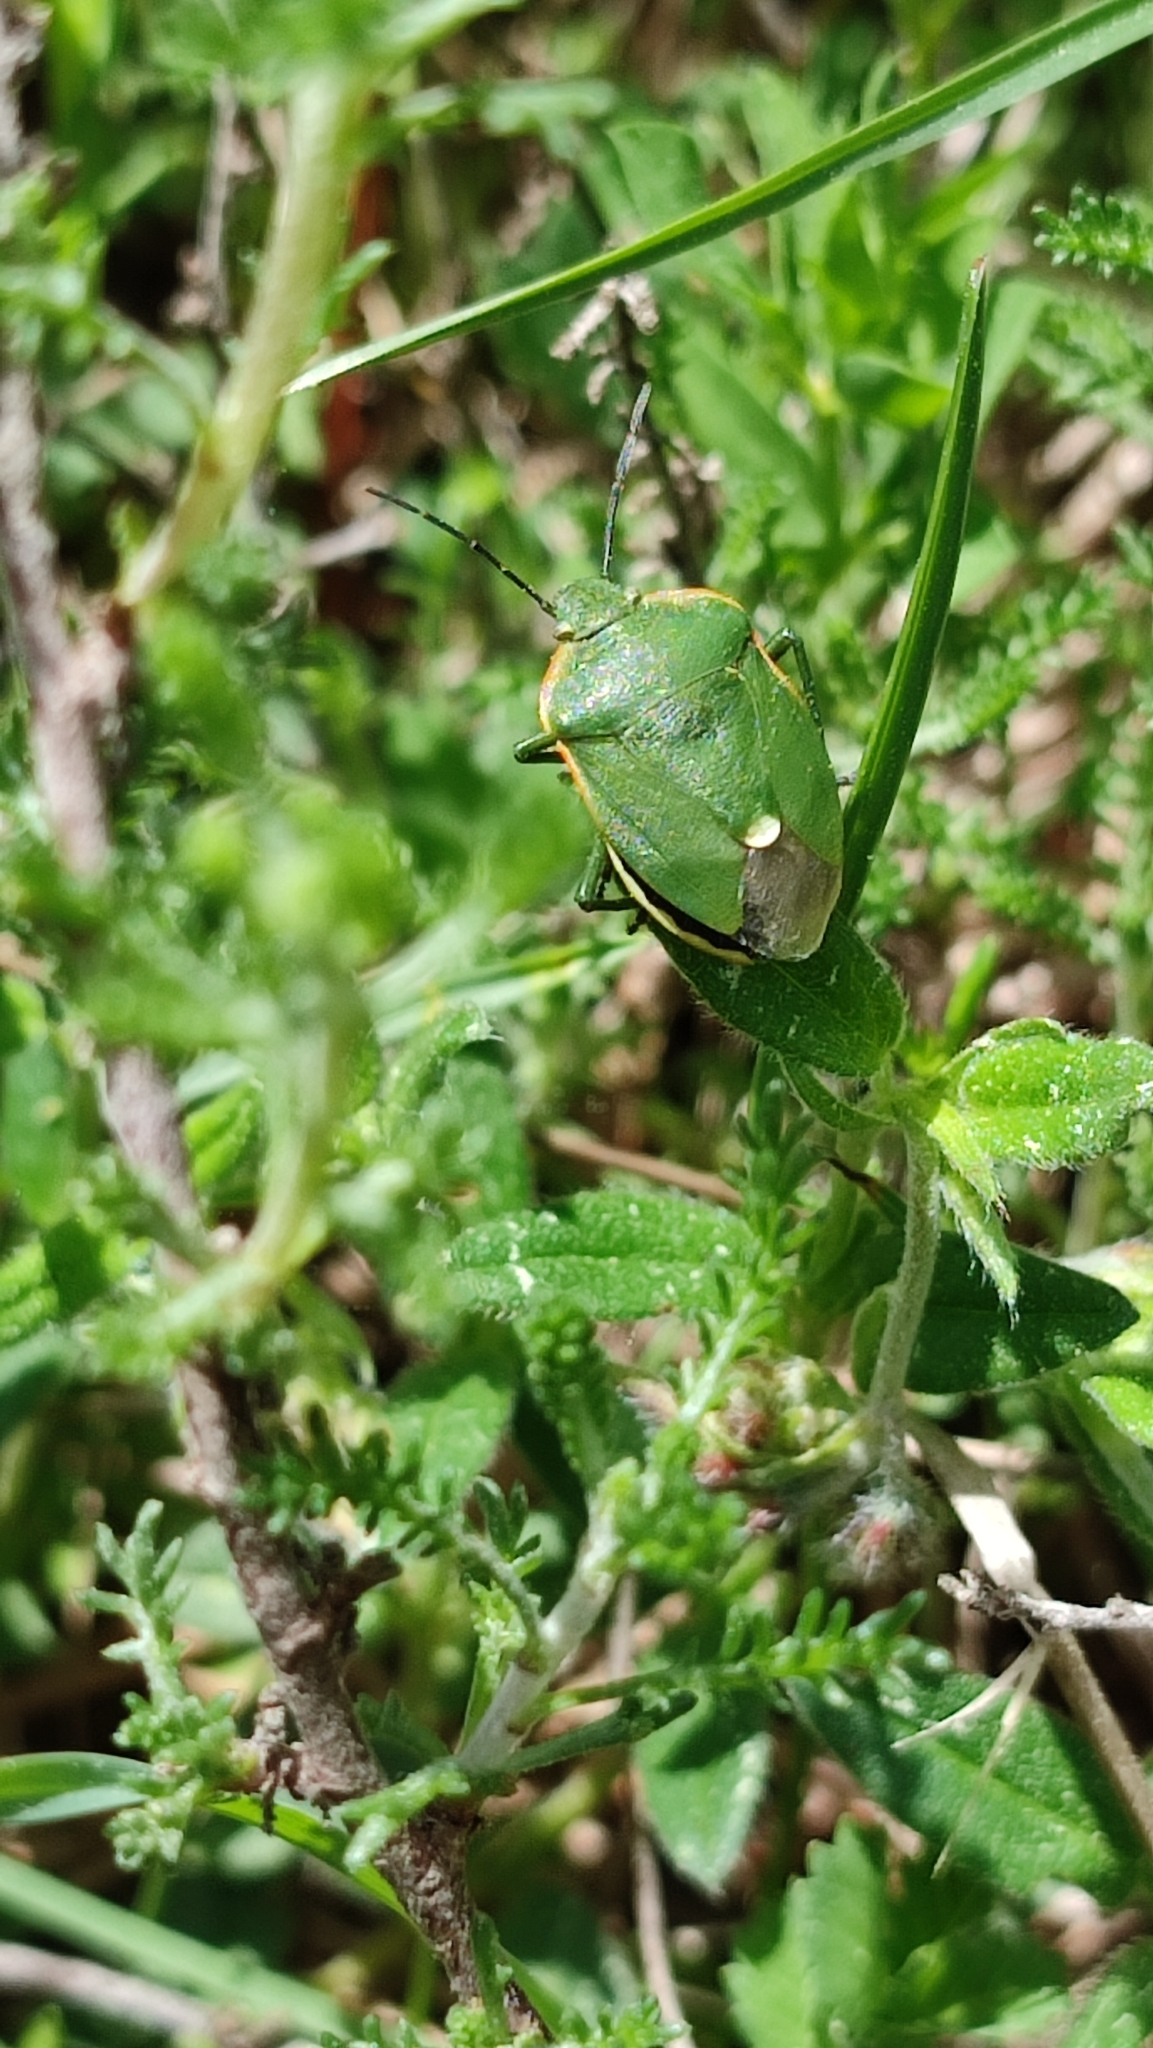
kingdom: Animalia
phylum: Arthropoda
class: Insecta
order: Hemiptera
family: Pentatomidae
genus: Chlorochroa
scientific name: Chlorochroa reuteriana
